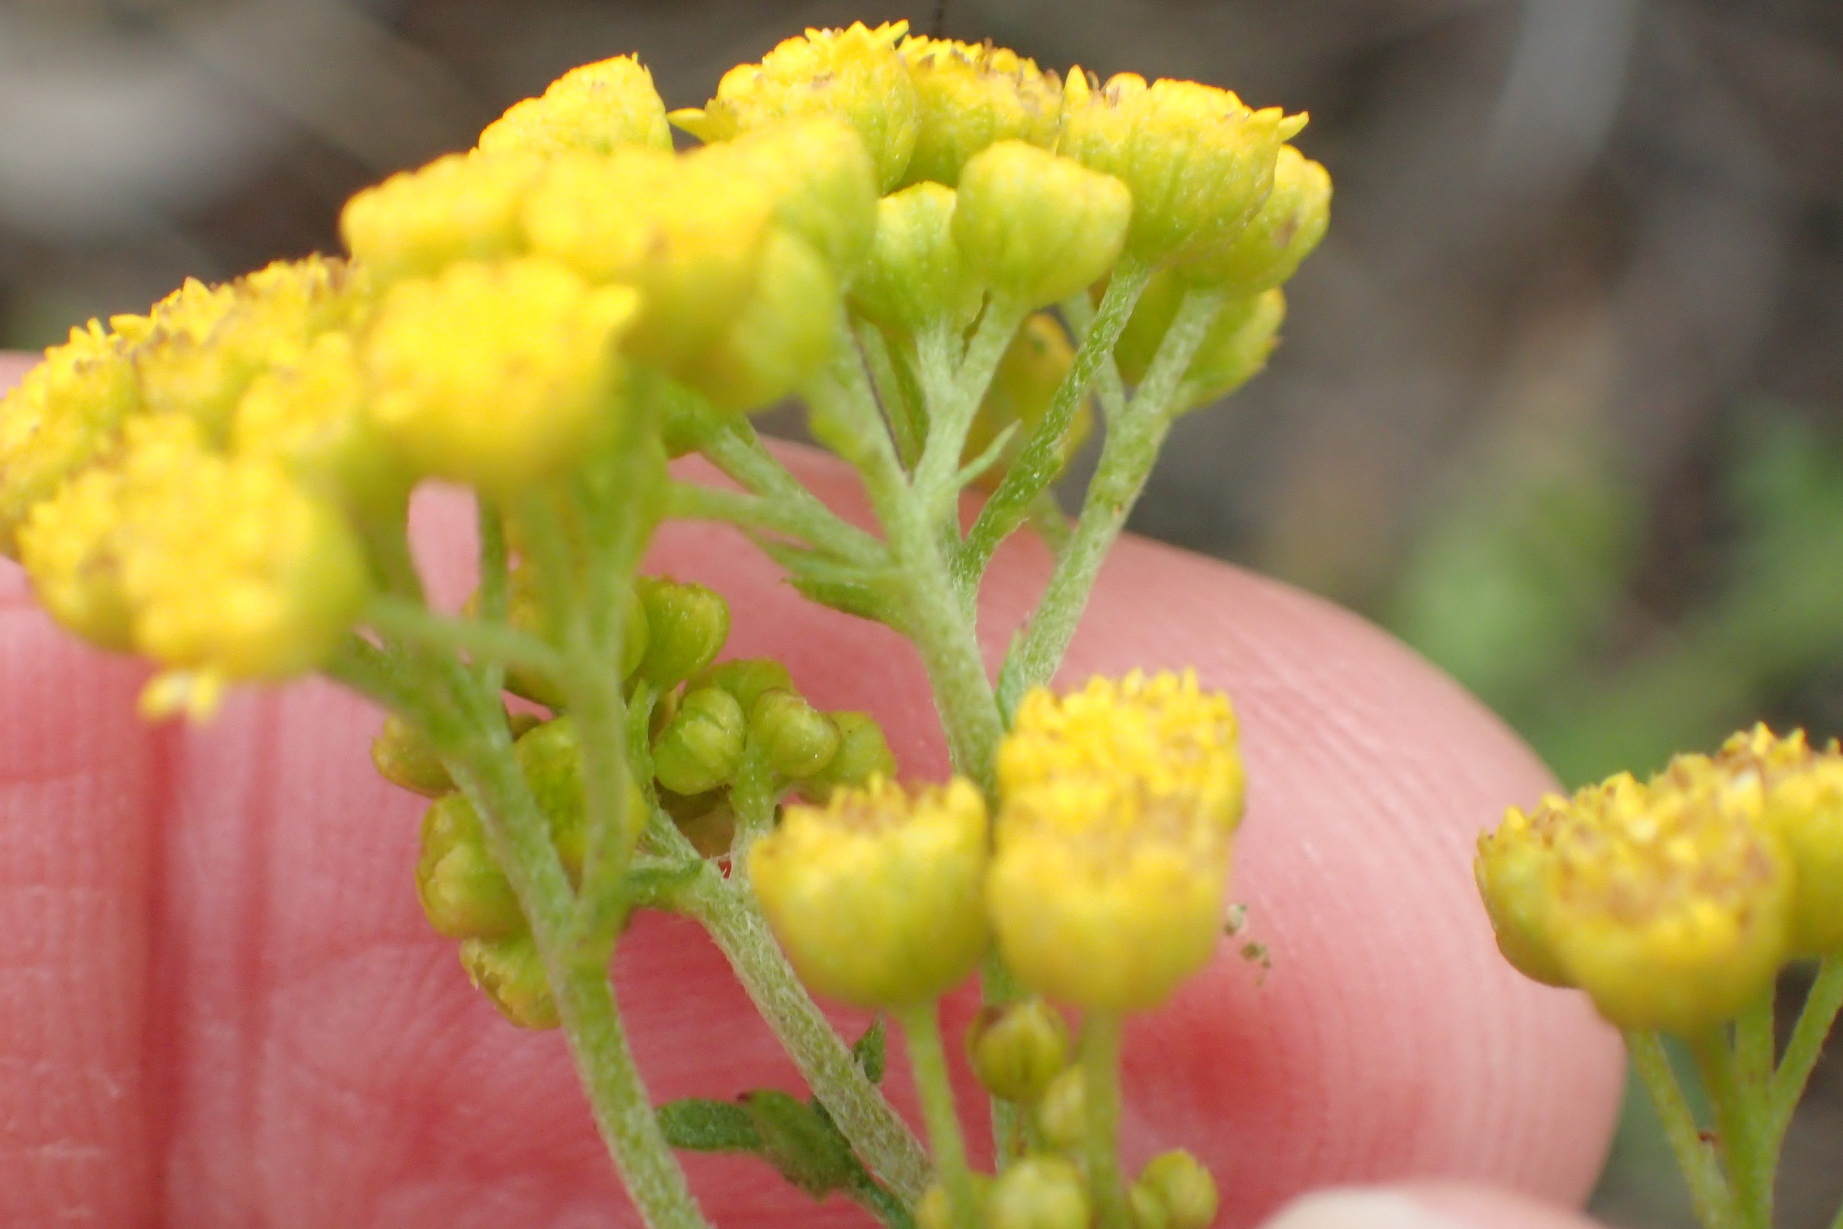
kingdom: Plantae
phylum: Tracheophyta
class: Magnoliopsida
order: Asterales
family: Asteraceae
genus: Hippia
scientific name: Hippia frutescens
